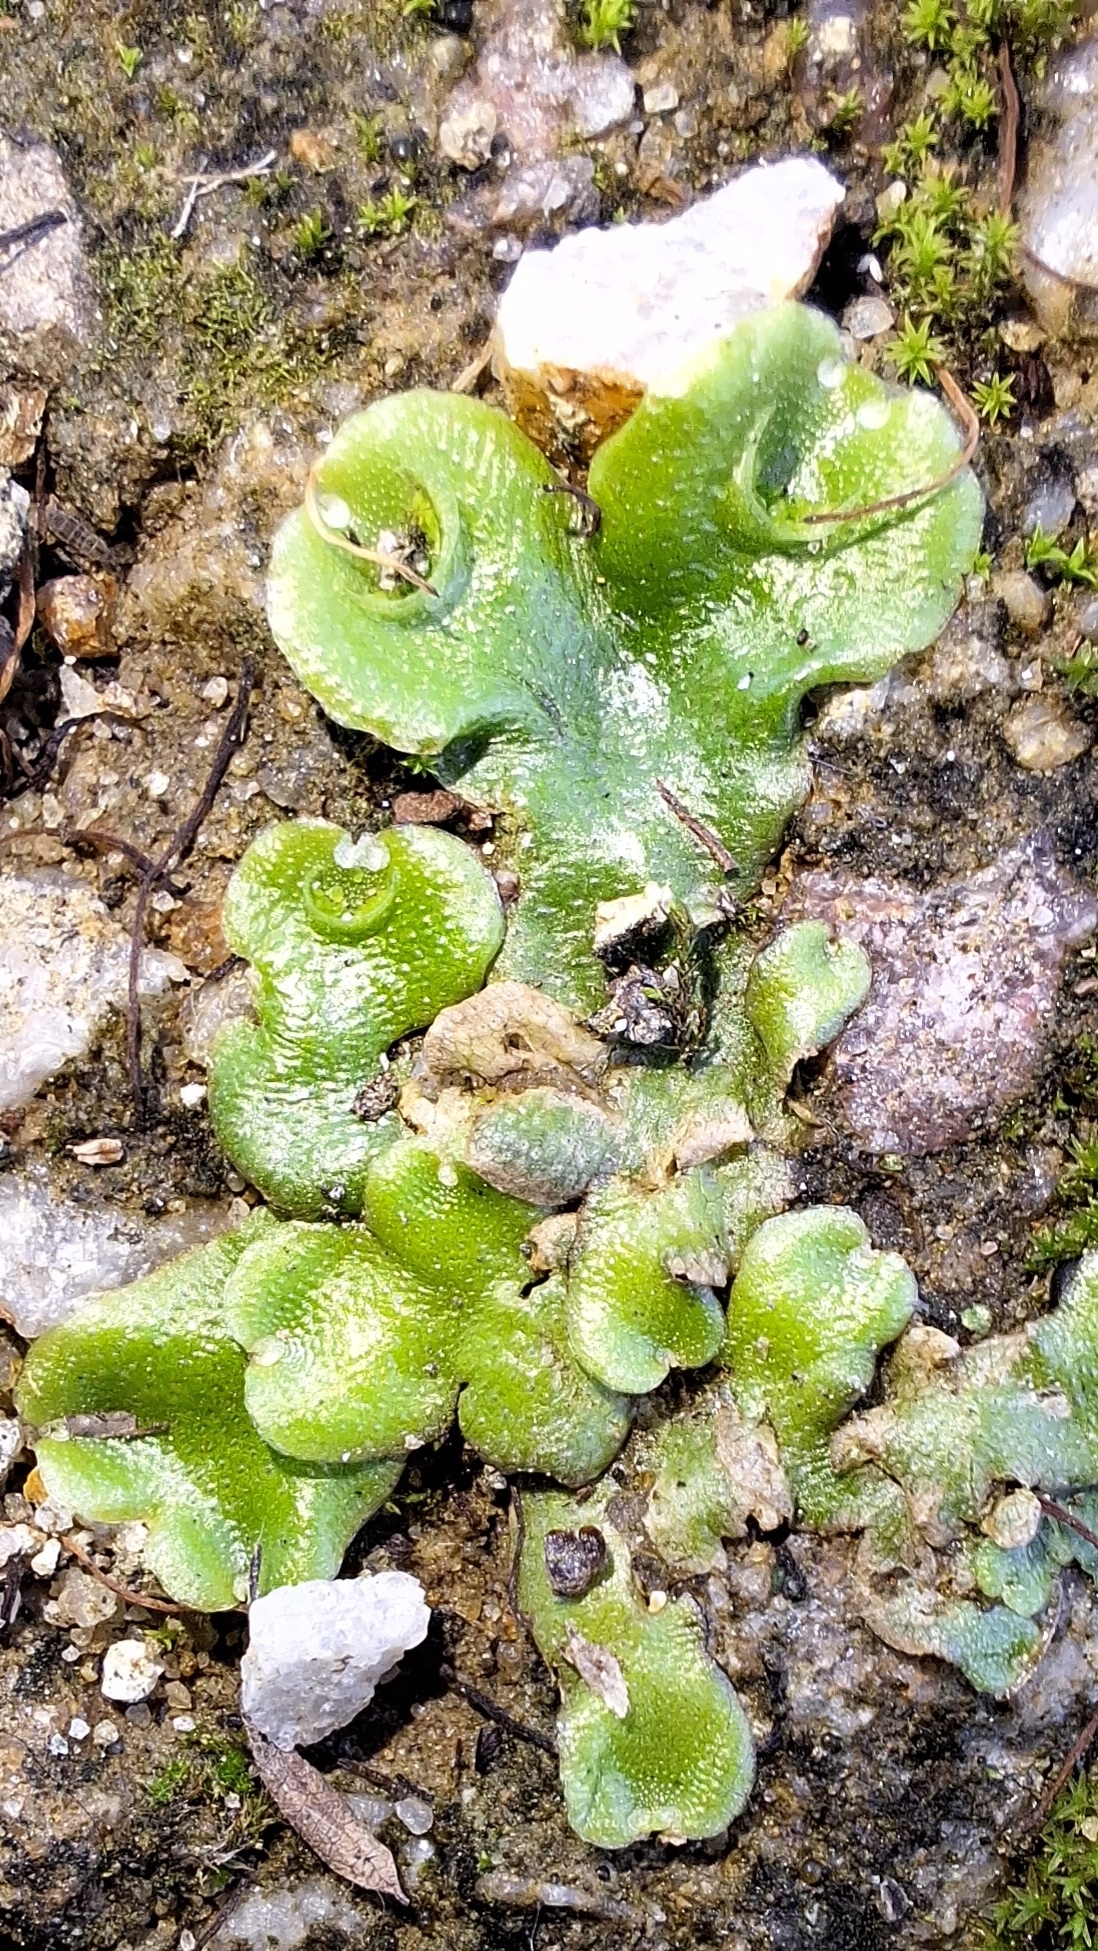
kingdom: Plantae
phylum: Marchantiophyta
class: Marchantiopsida
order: Lunulariales
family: Lunulariaceae
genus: Lunularia
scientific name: Lunularia cruciata
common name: Crescent-cup liverwort
